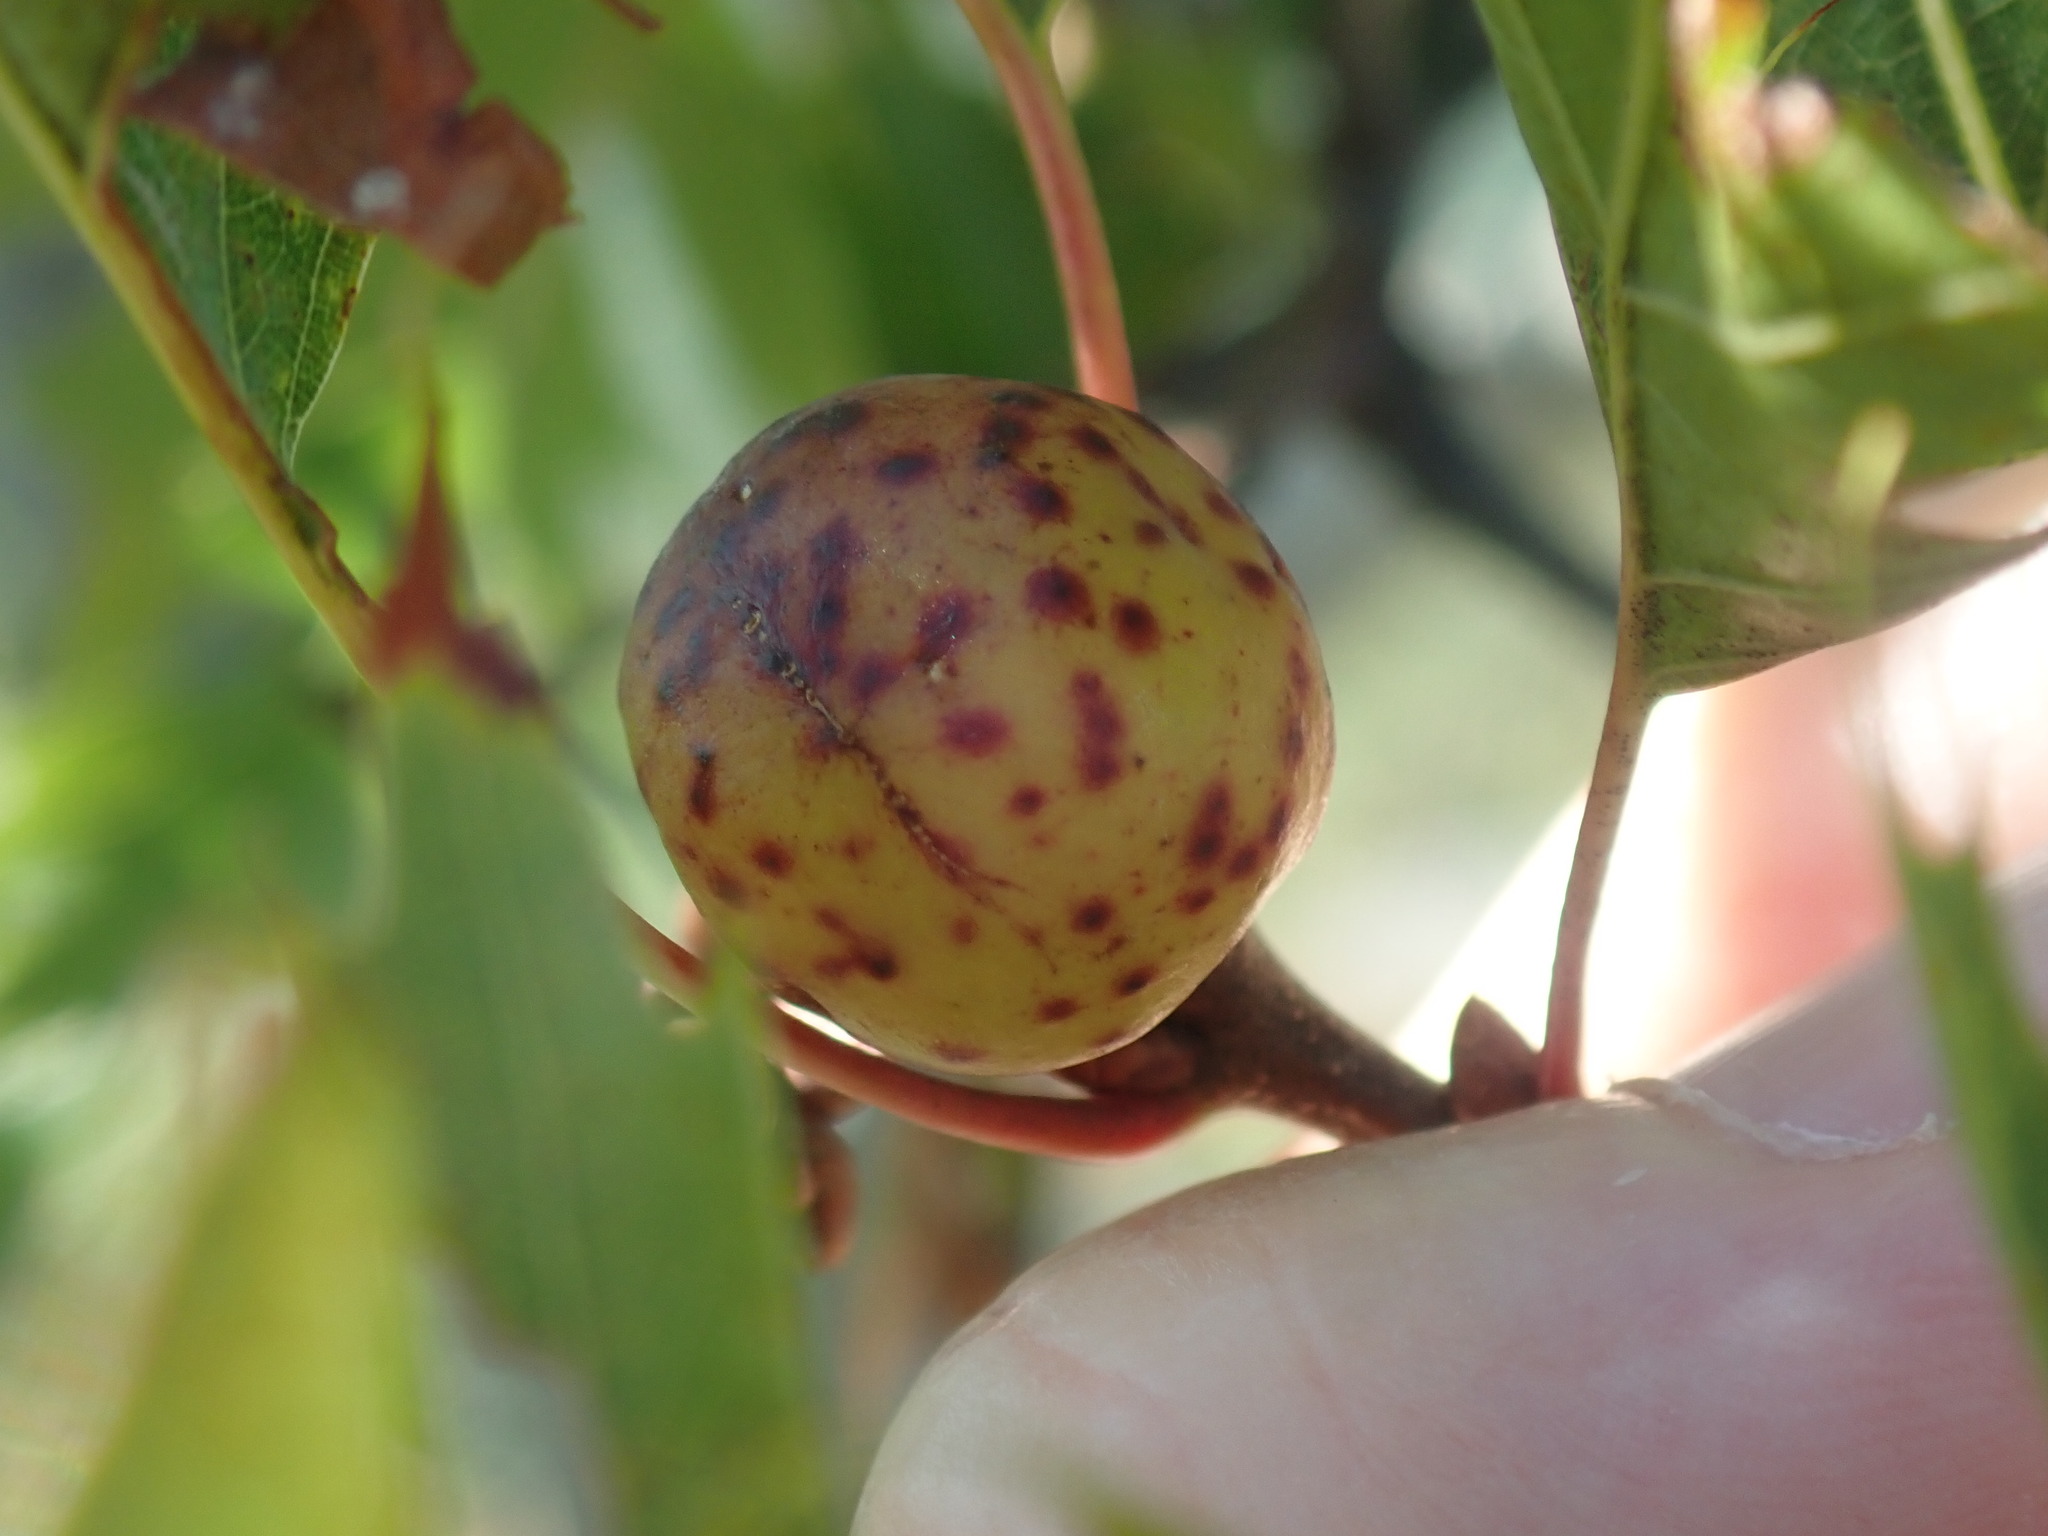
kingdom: Animalia
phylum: Arthropoda
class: Insecta
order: Hymenoptera
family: Cynipidae
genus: Amphibolips
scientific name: Amphibolips
